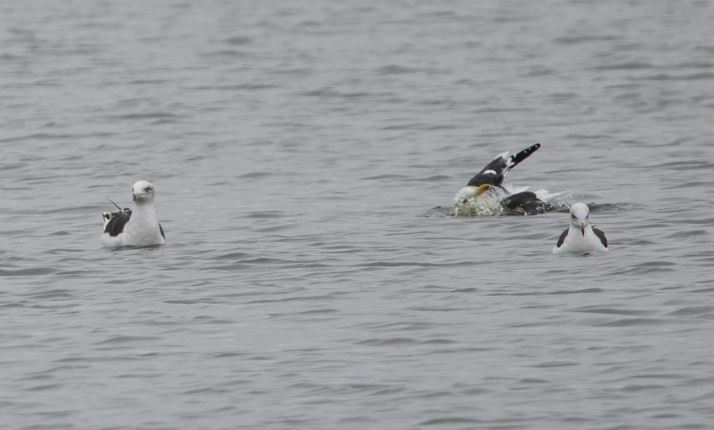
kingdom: Animalia
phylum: Chordata
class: Aves
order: Charadriiformes
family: Laridae
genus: Larus
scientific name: Larus dominicanus
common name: Kelp gull
